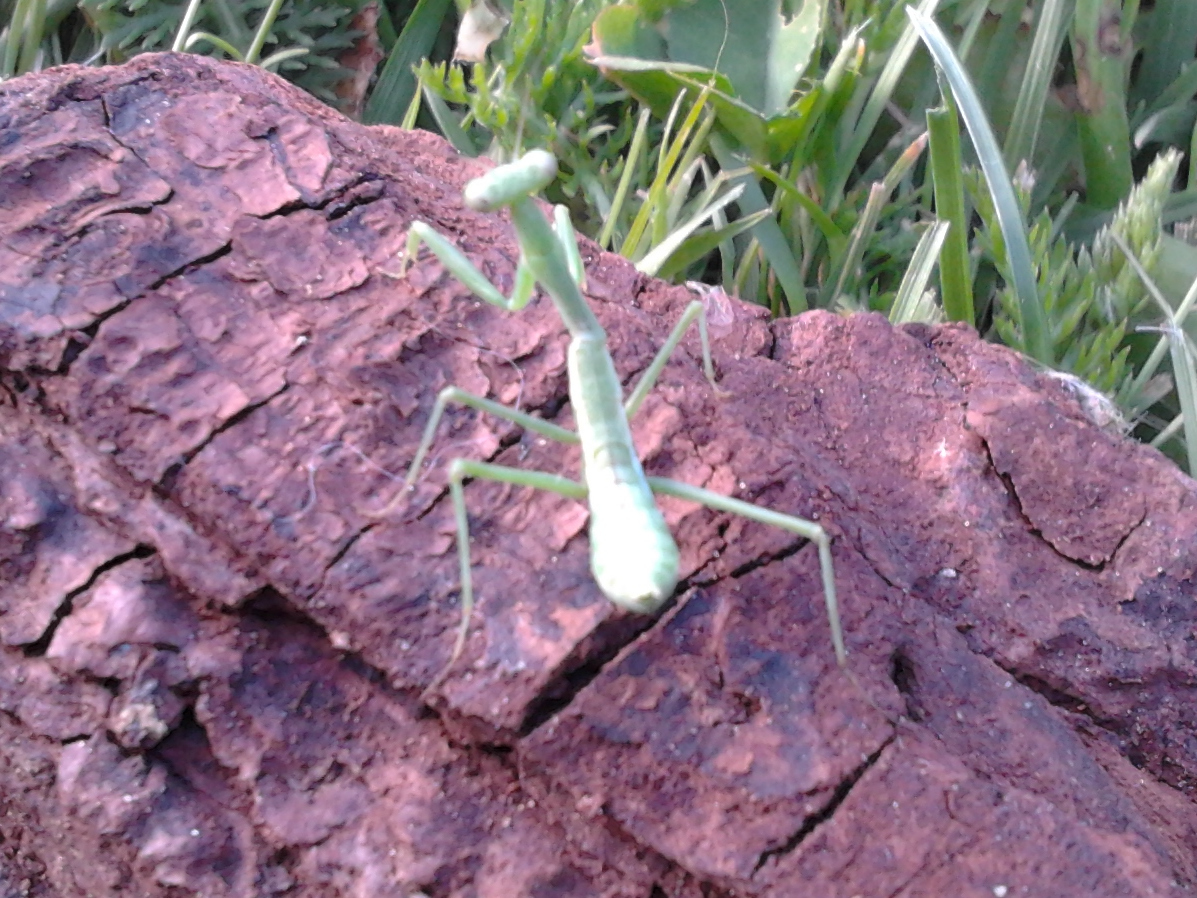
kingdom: Animalia
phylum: Arthropoda
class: Insecta
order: Mantodea
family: Miomantidae
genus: Miomantis
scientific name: Miomantis caffra
